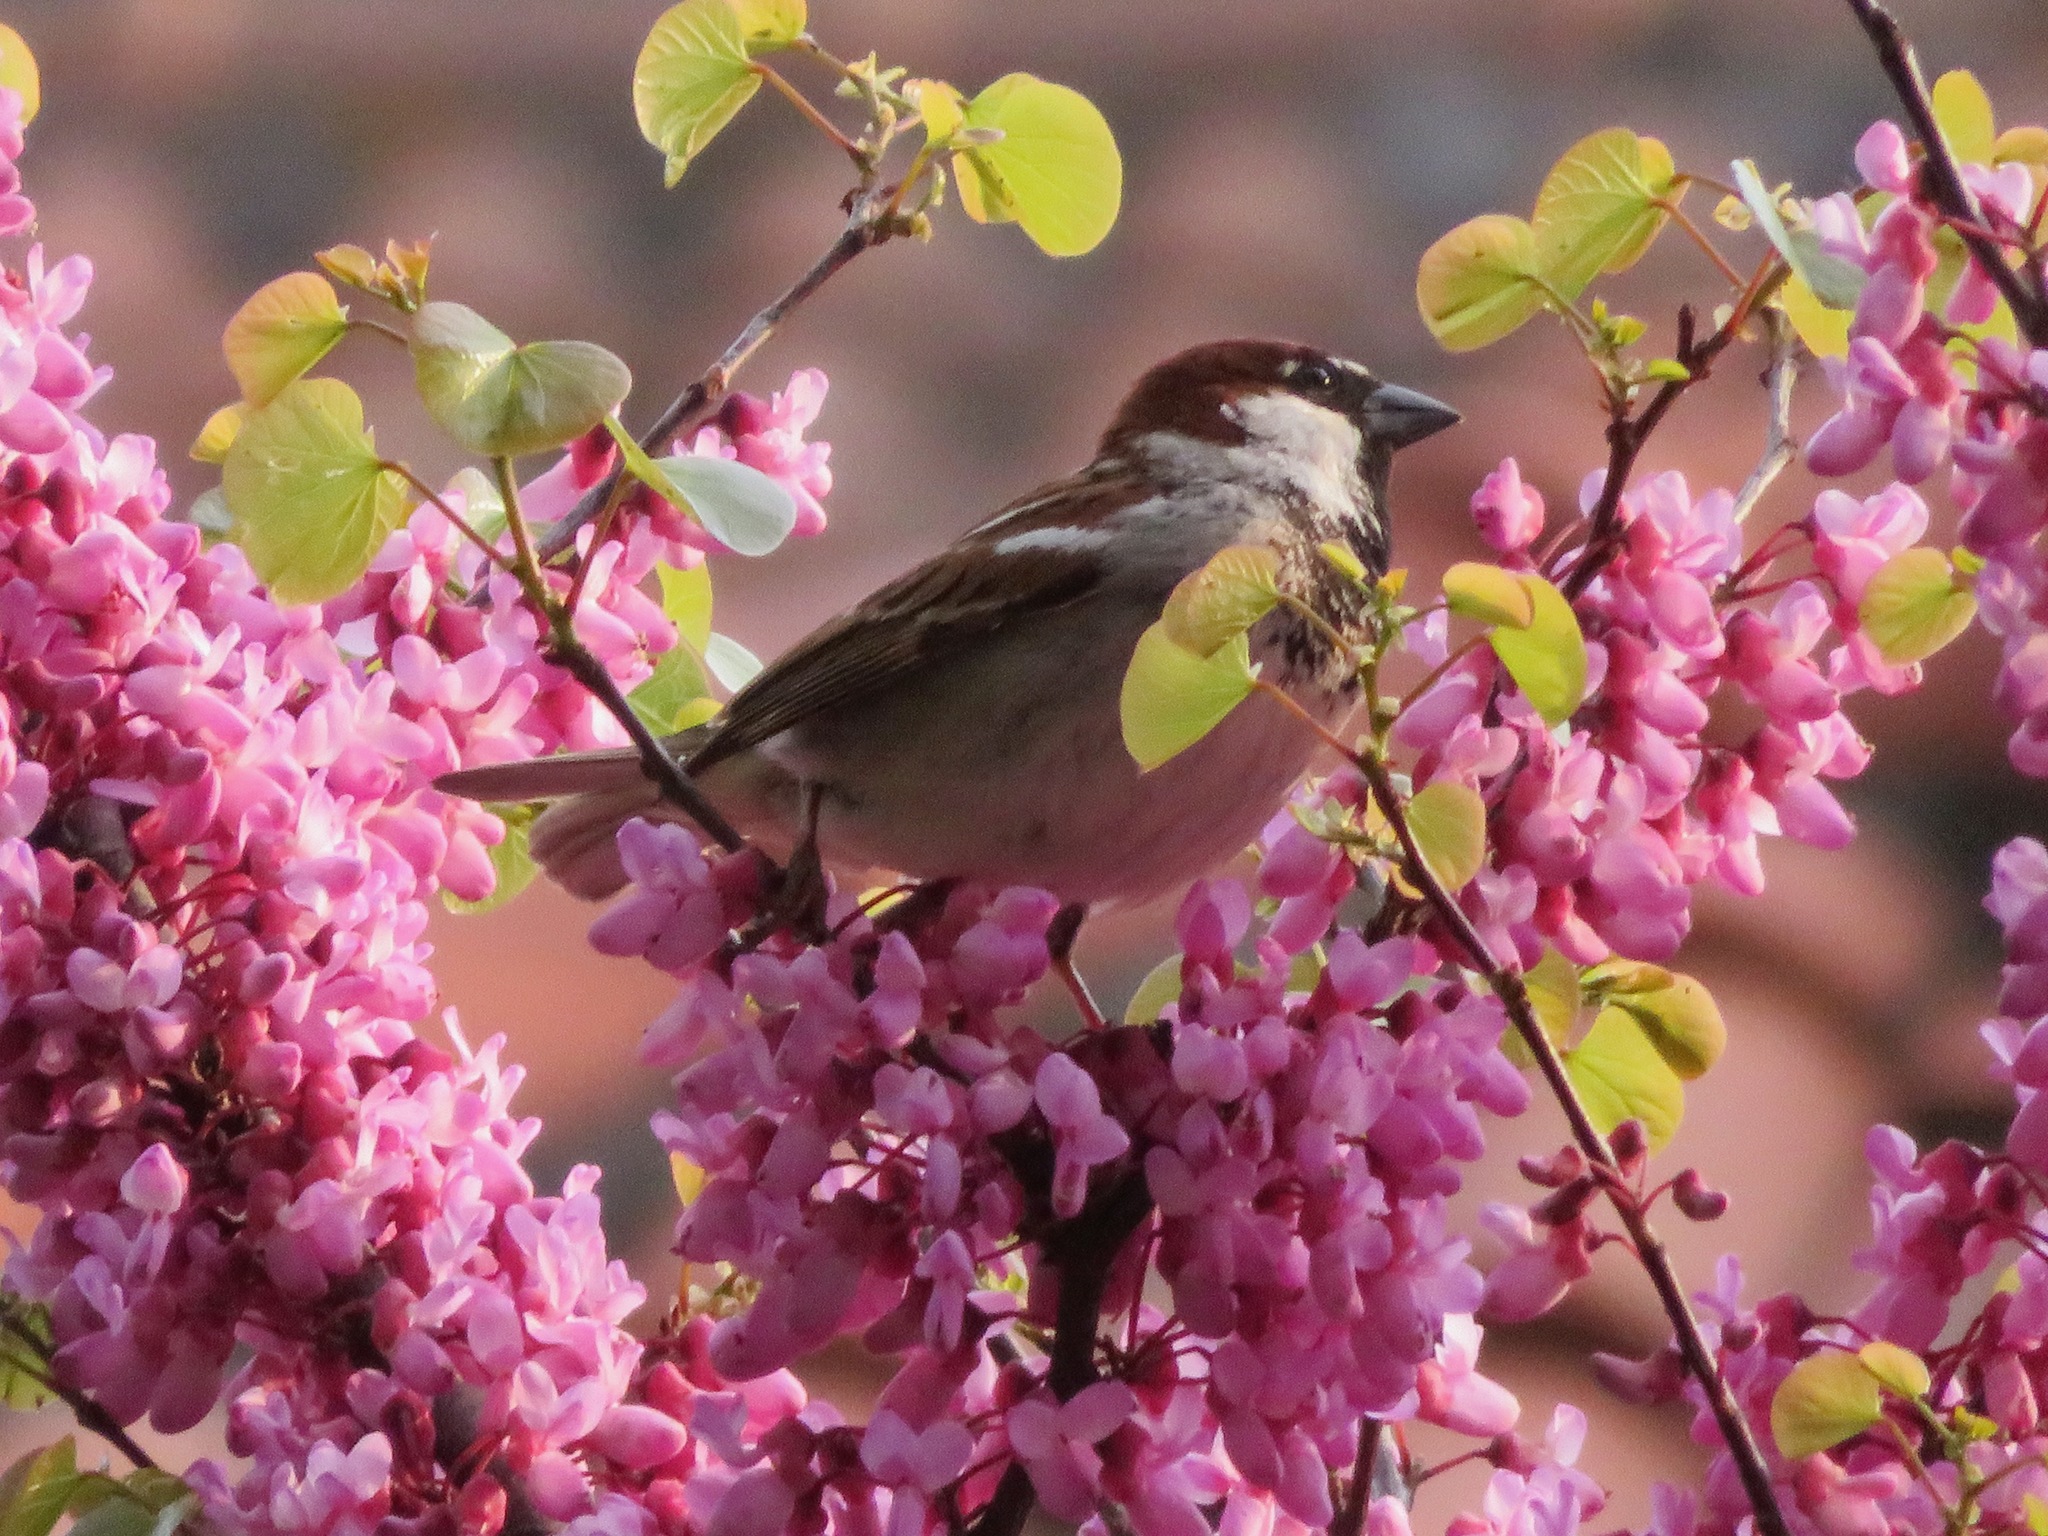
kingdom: Animalia
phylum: Chordata
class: Aves
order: Passeriformes
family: Passeridae
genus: Passer
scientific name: Passer italiae
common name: Italian sparrow
